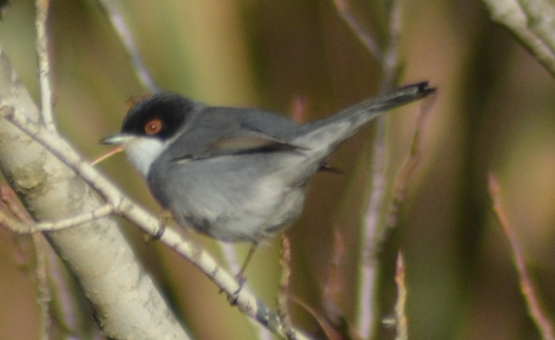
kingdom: Animalia
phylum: Chordata
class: Aves
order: Passeriformes
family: Sylviidae
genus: Curruca
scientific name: Curruca melanocephala
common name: Sardinian warbler
